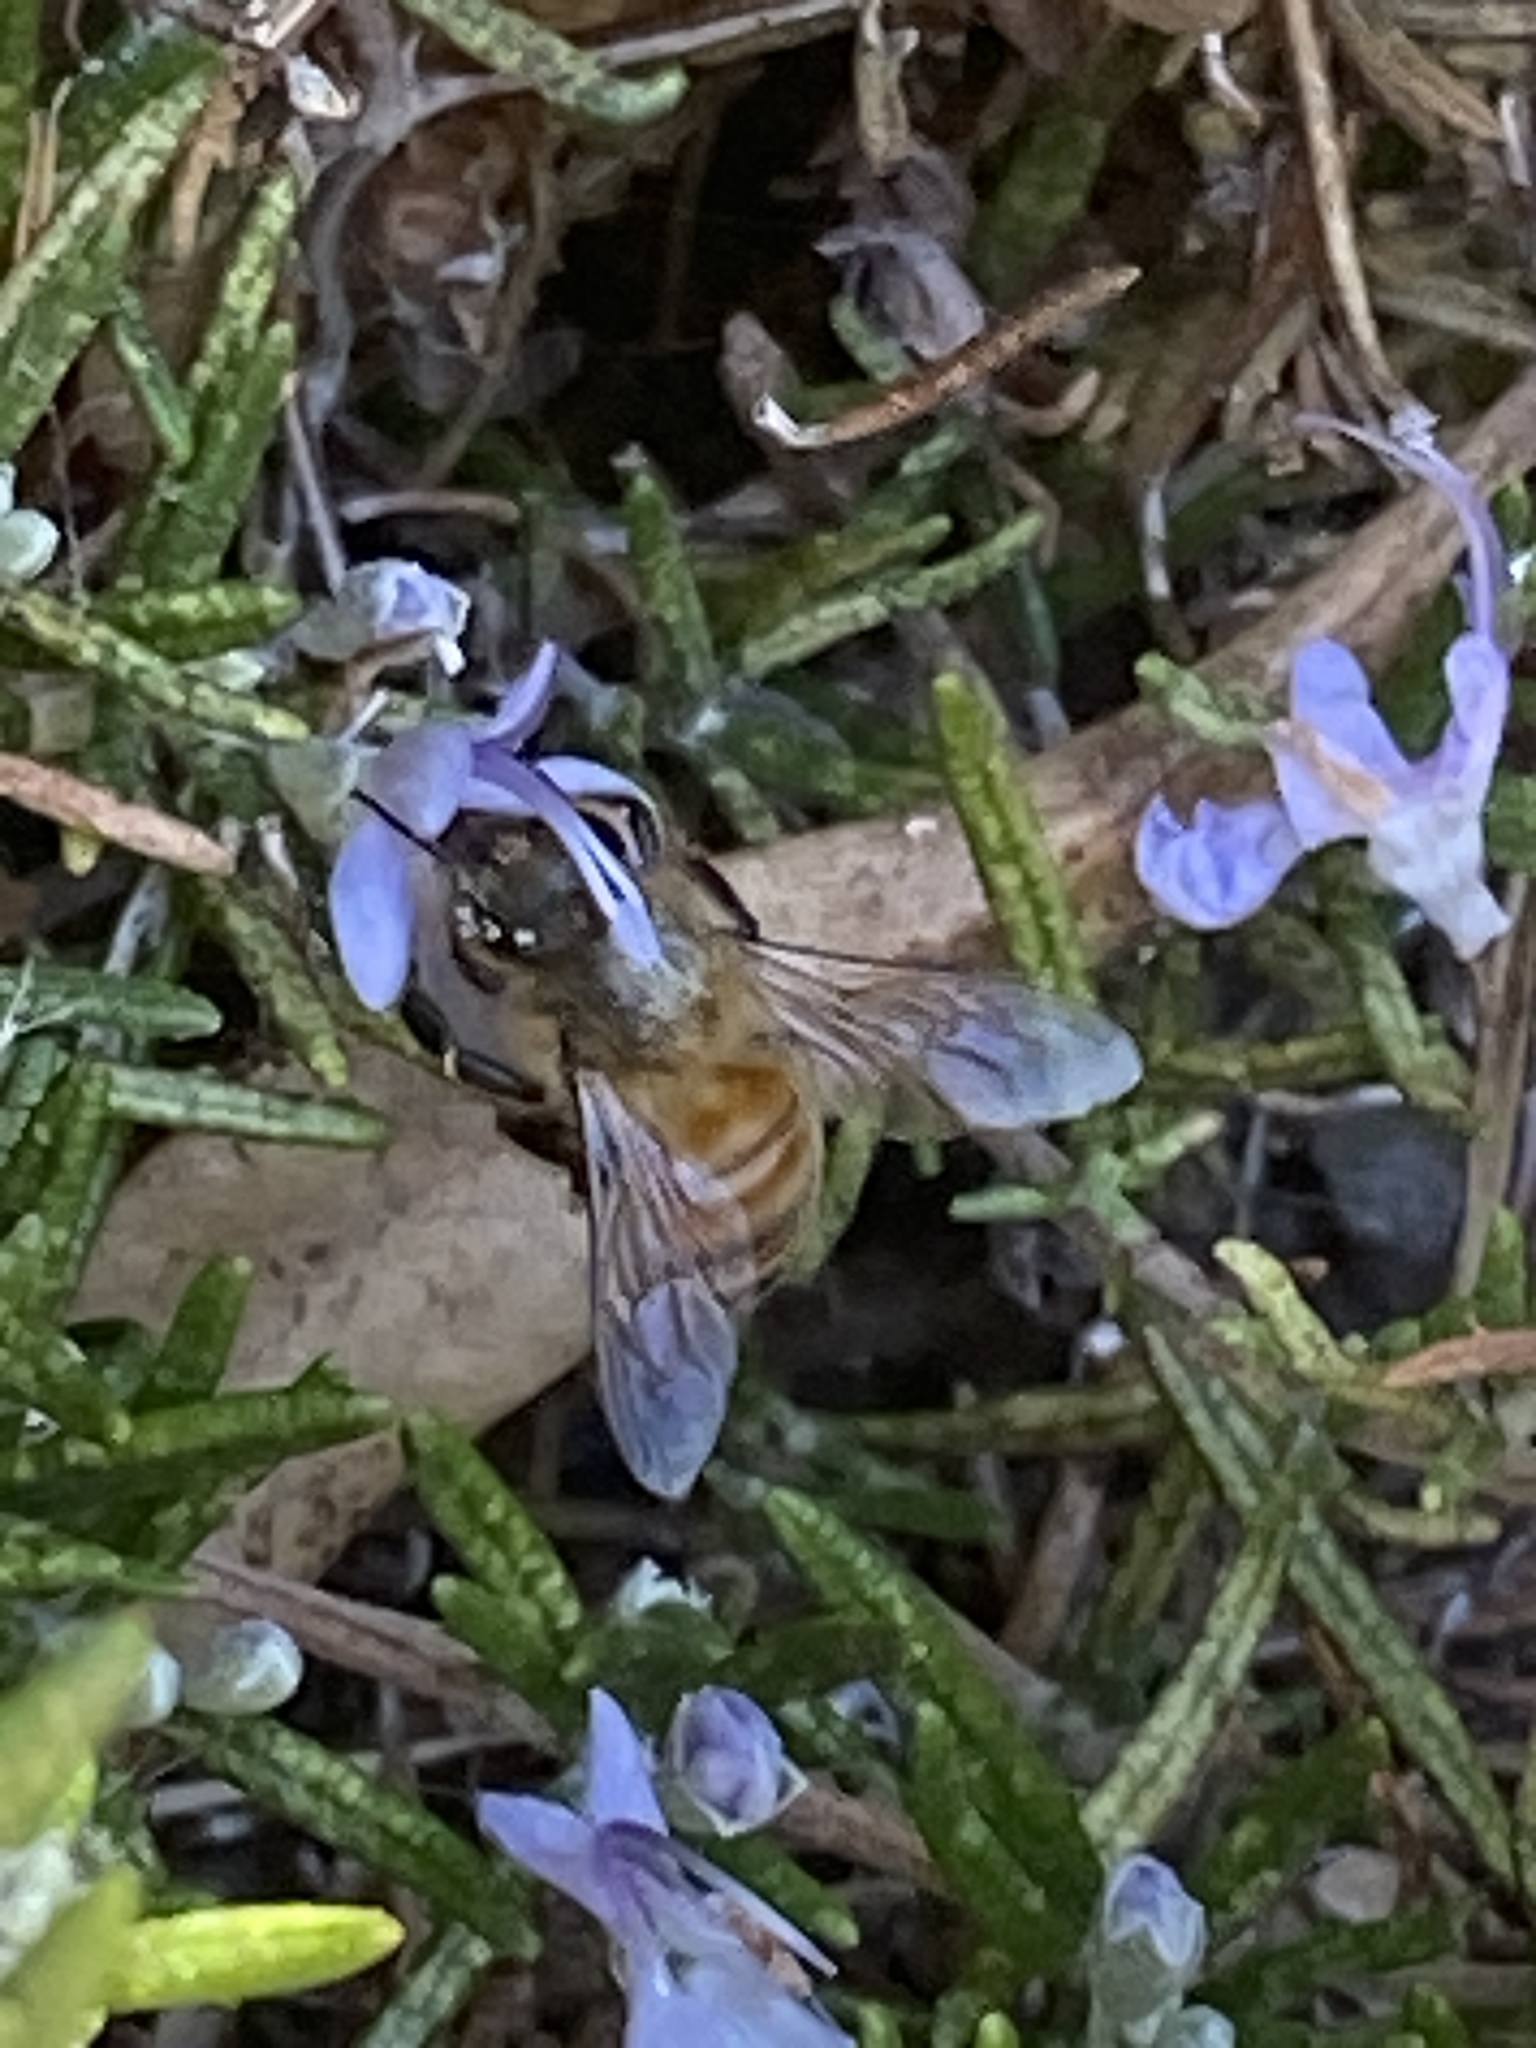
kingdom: Animalia
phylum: Arthropoda
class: Insecta
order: Hymenoptera
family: Apidae
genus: Apis
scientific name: Apis mellifera
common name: Honey bee
